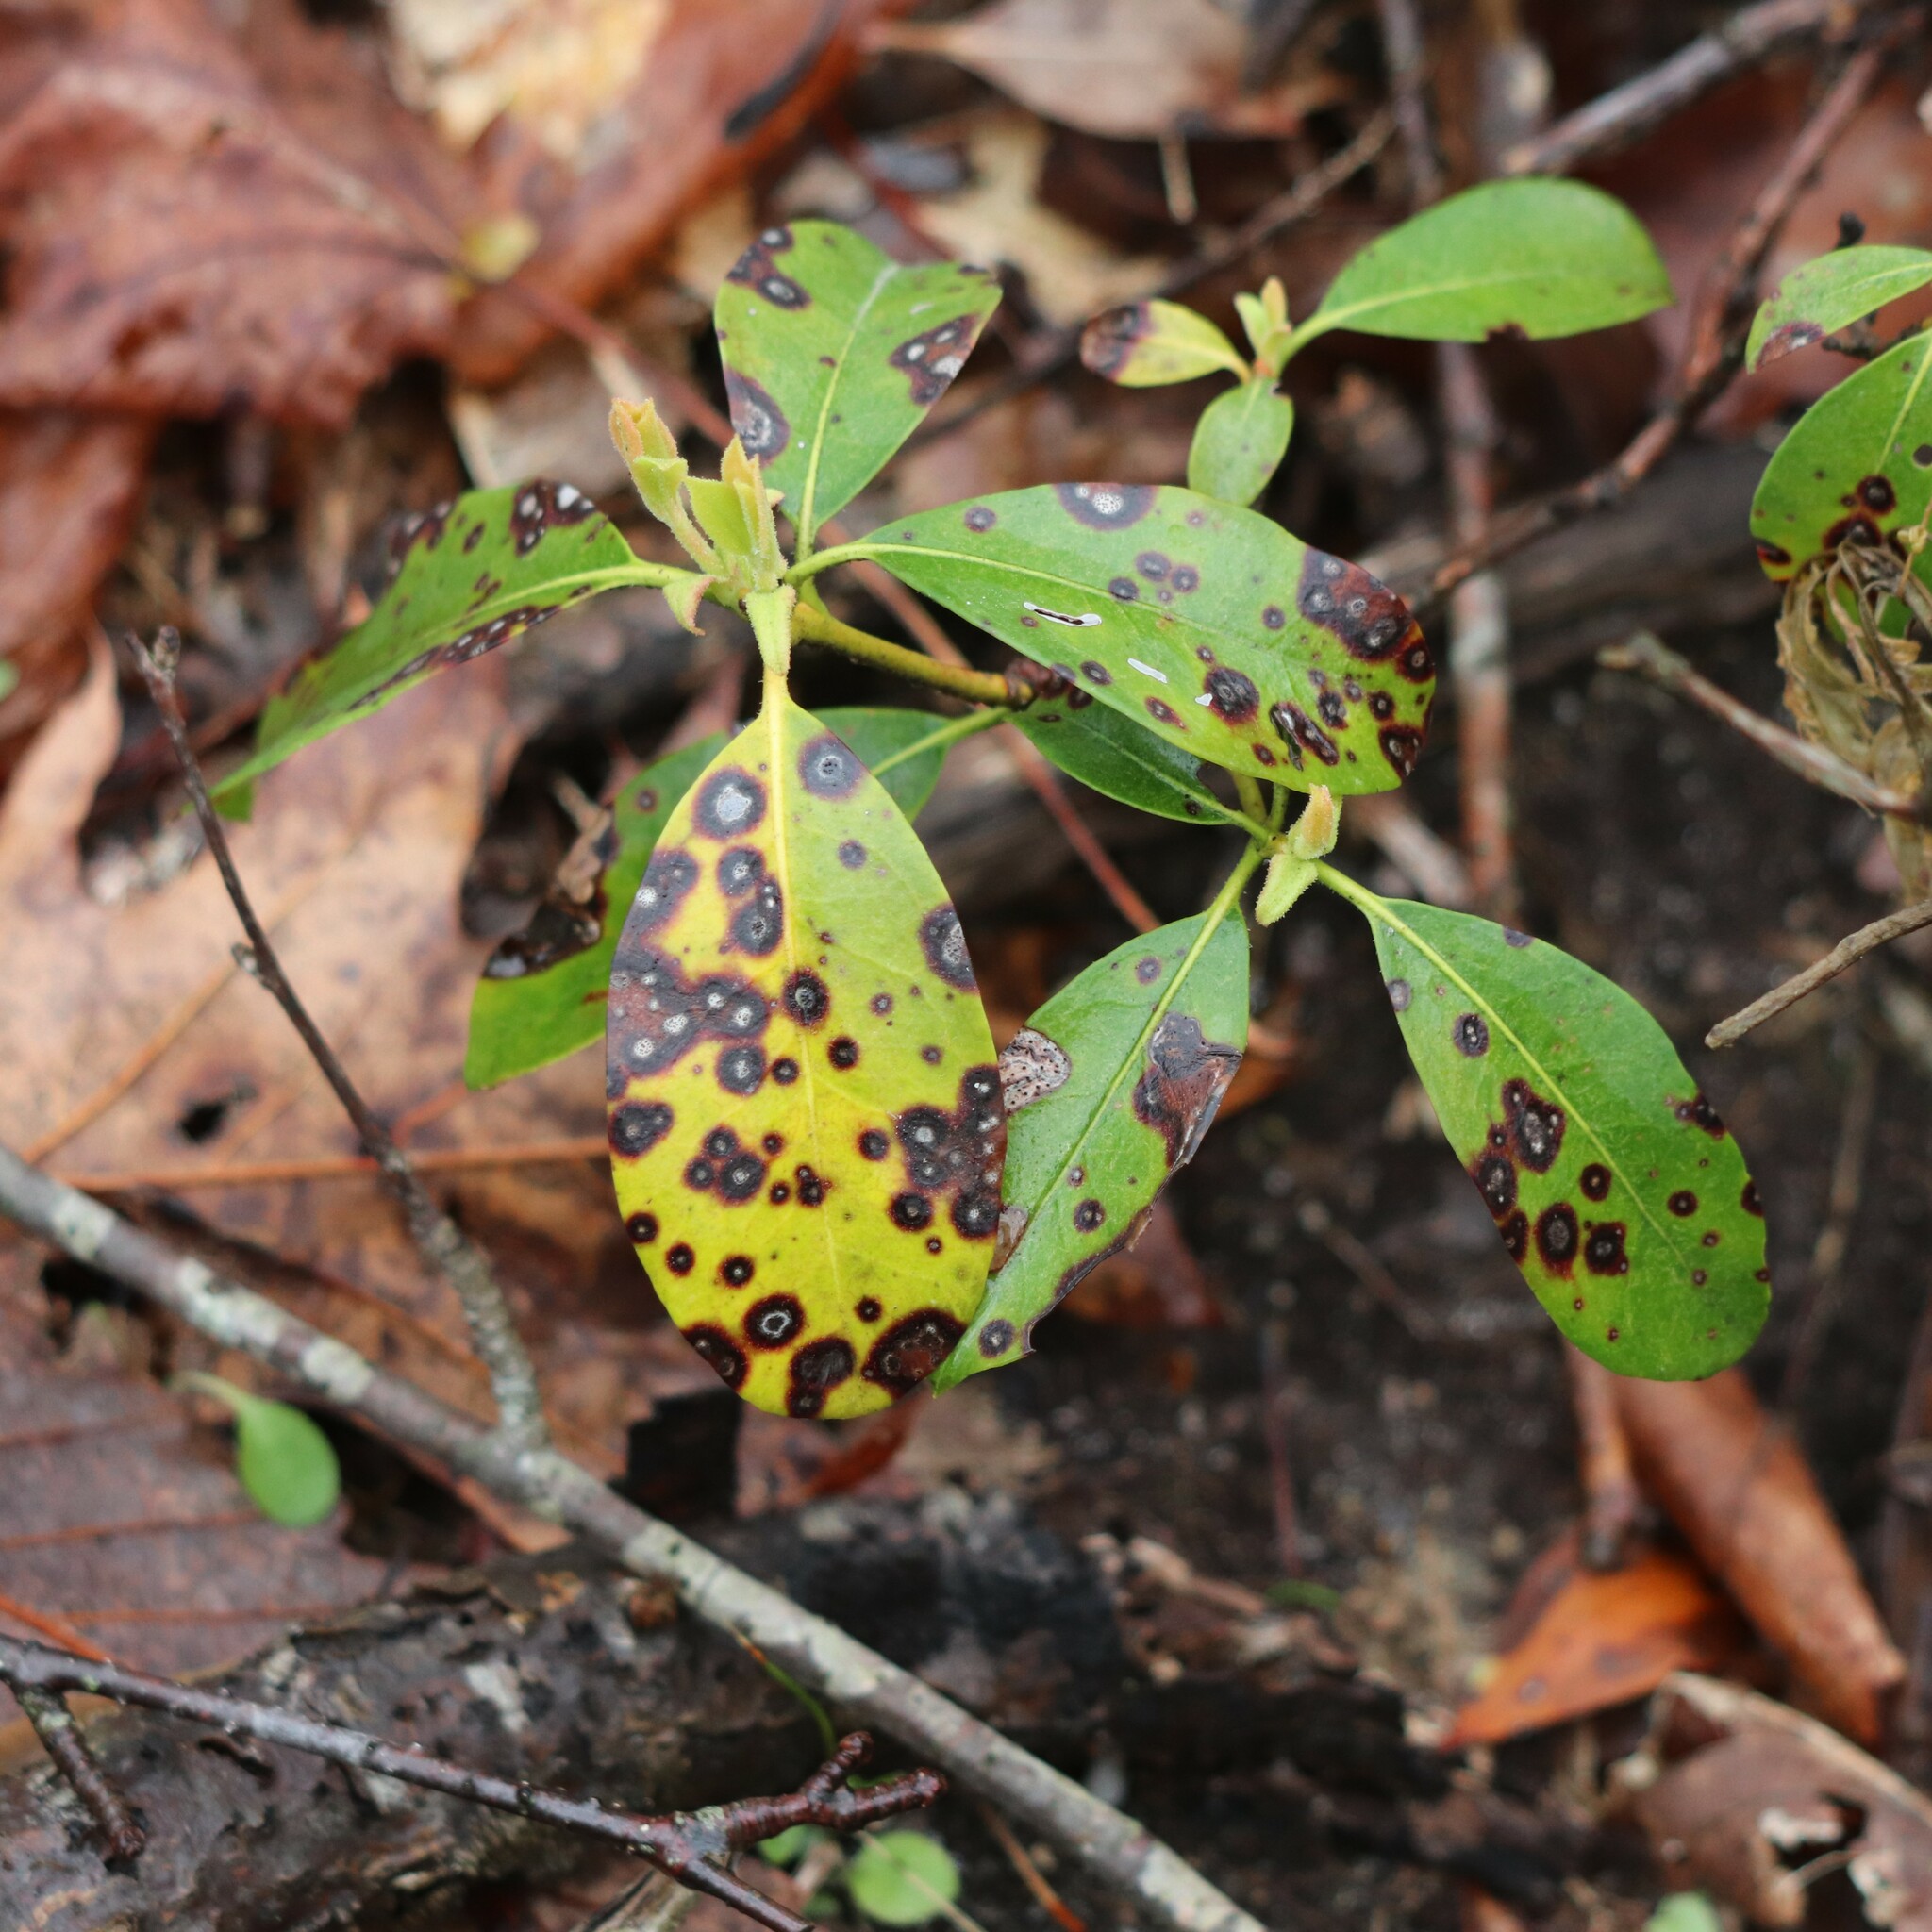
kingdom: Plantae
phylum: Tracheophyta
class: Magnoliopsida
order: Ericales
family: Ericaceae
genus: Kalmia
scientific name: Kalmia latifolia
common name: Mountain-laurel
